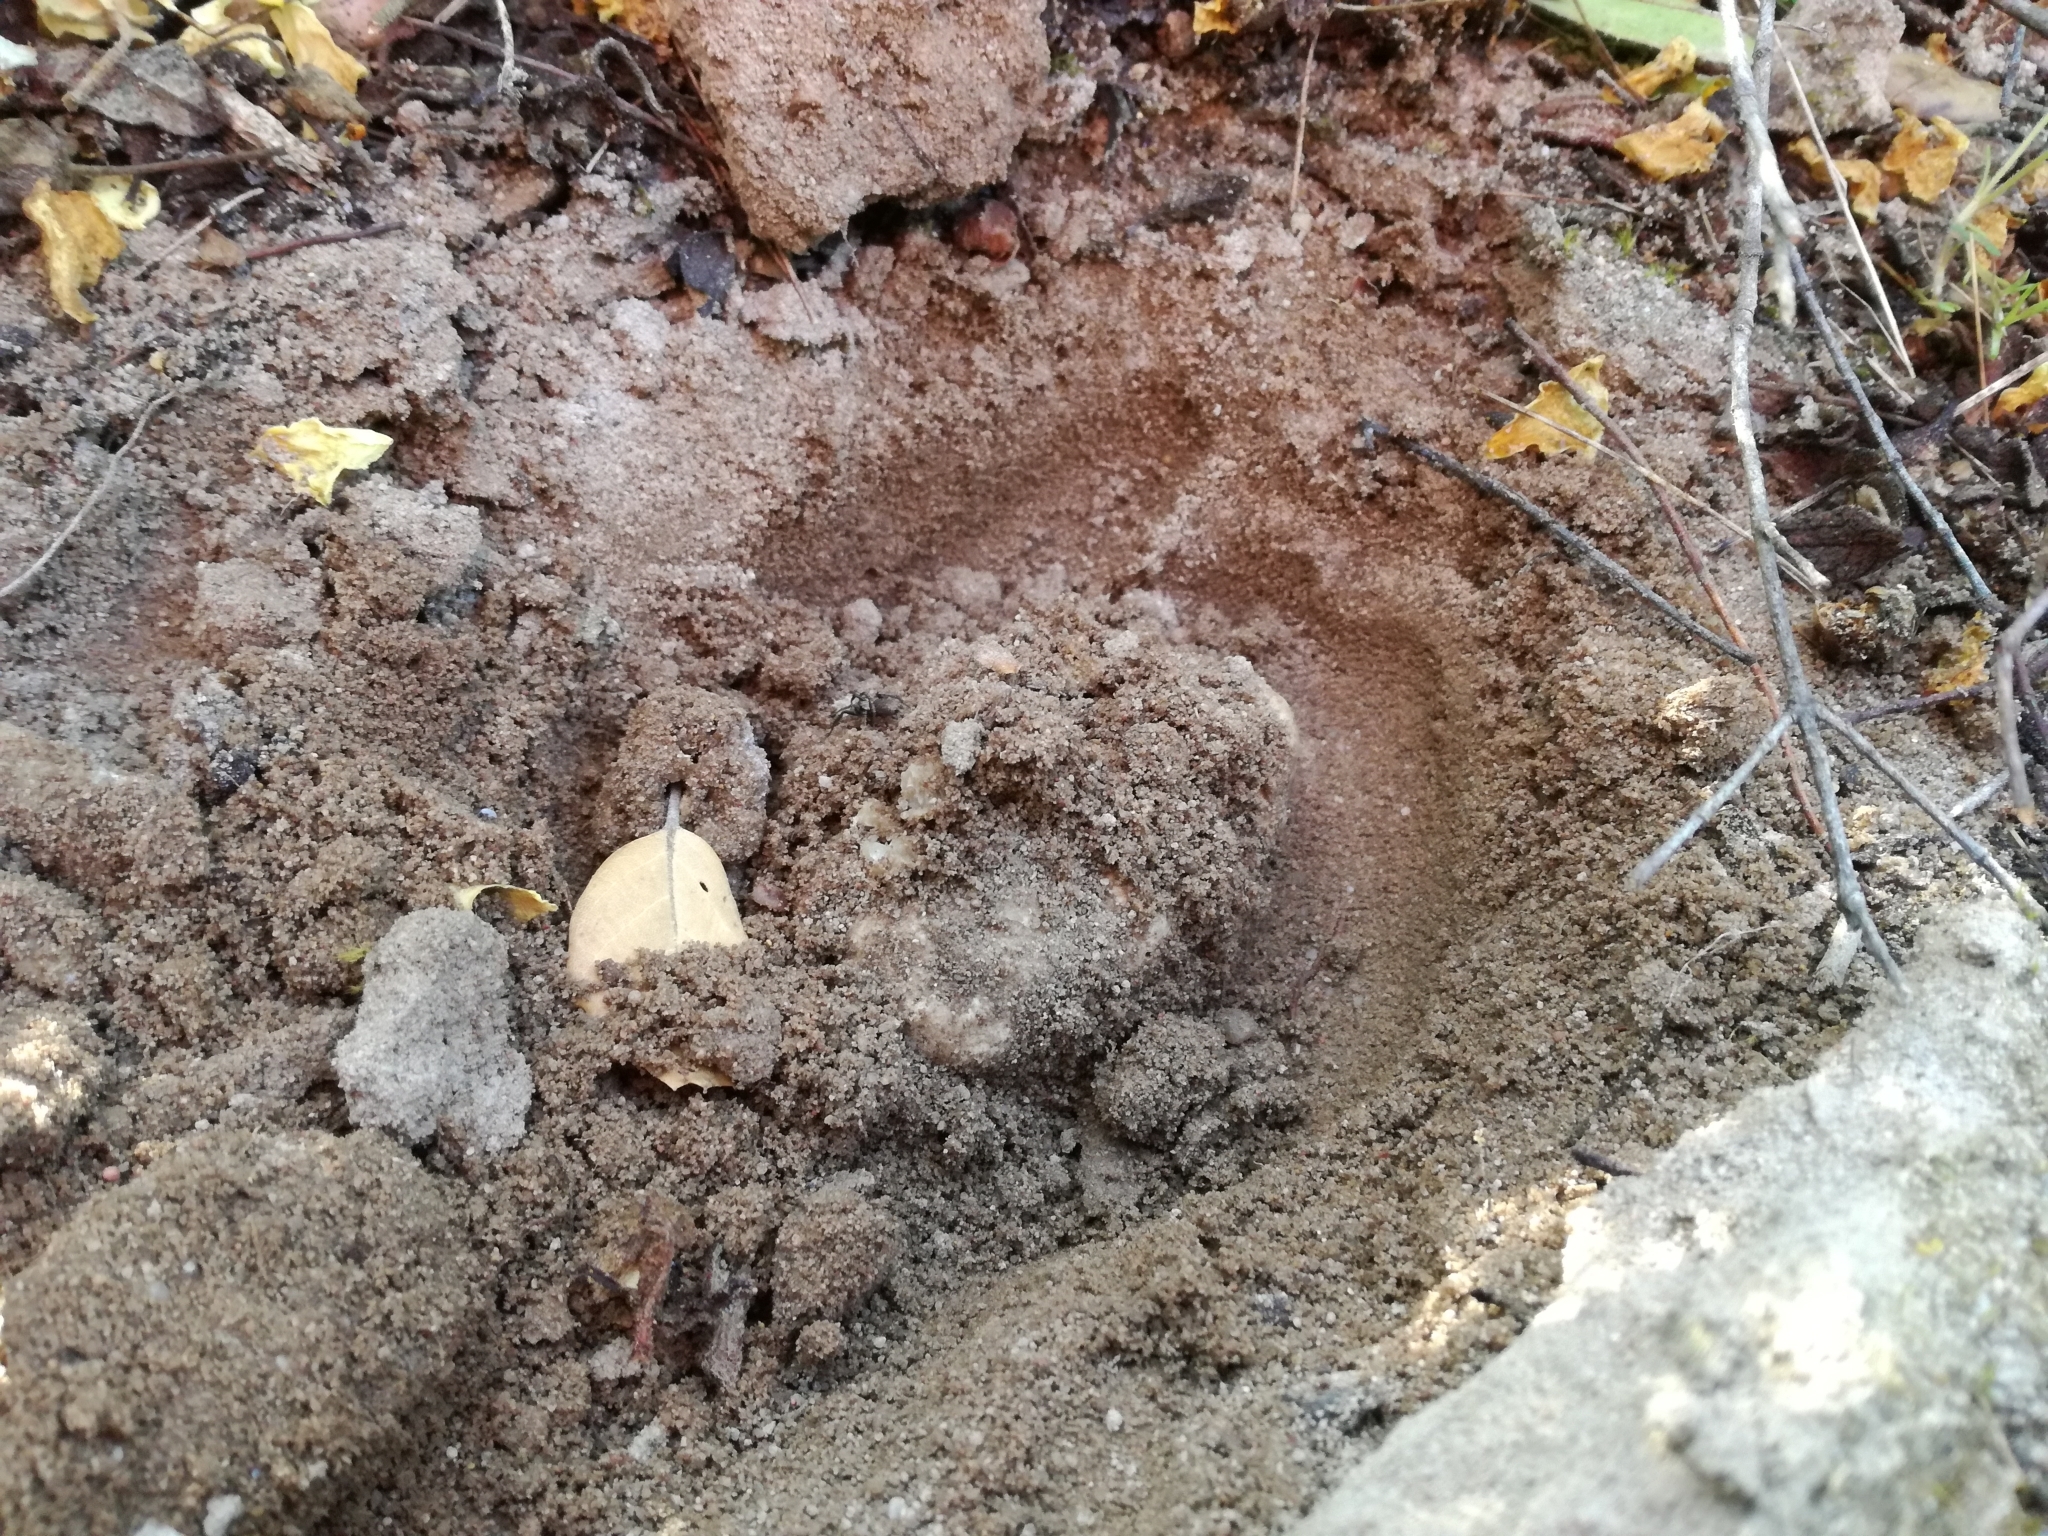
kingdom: Fungi
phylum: Ascomycota
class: Pezizomycetes
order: Pezizales
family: Tuberaceae
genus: Tuber
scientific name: Tuber sphaerospermum
